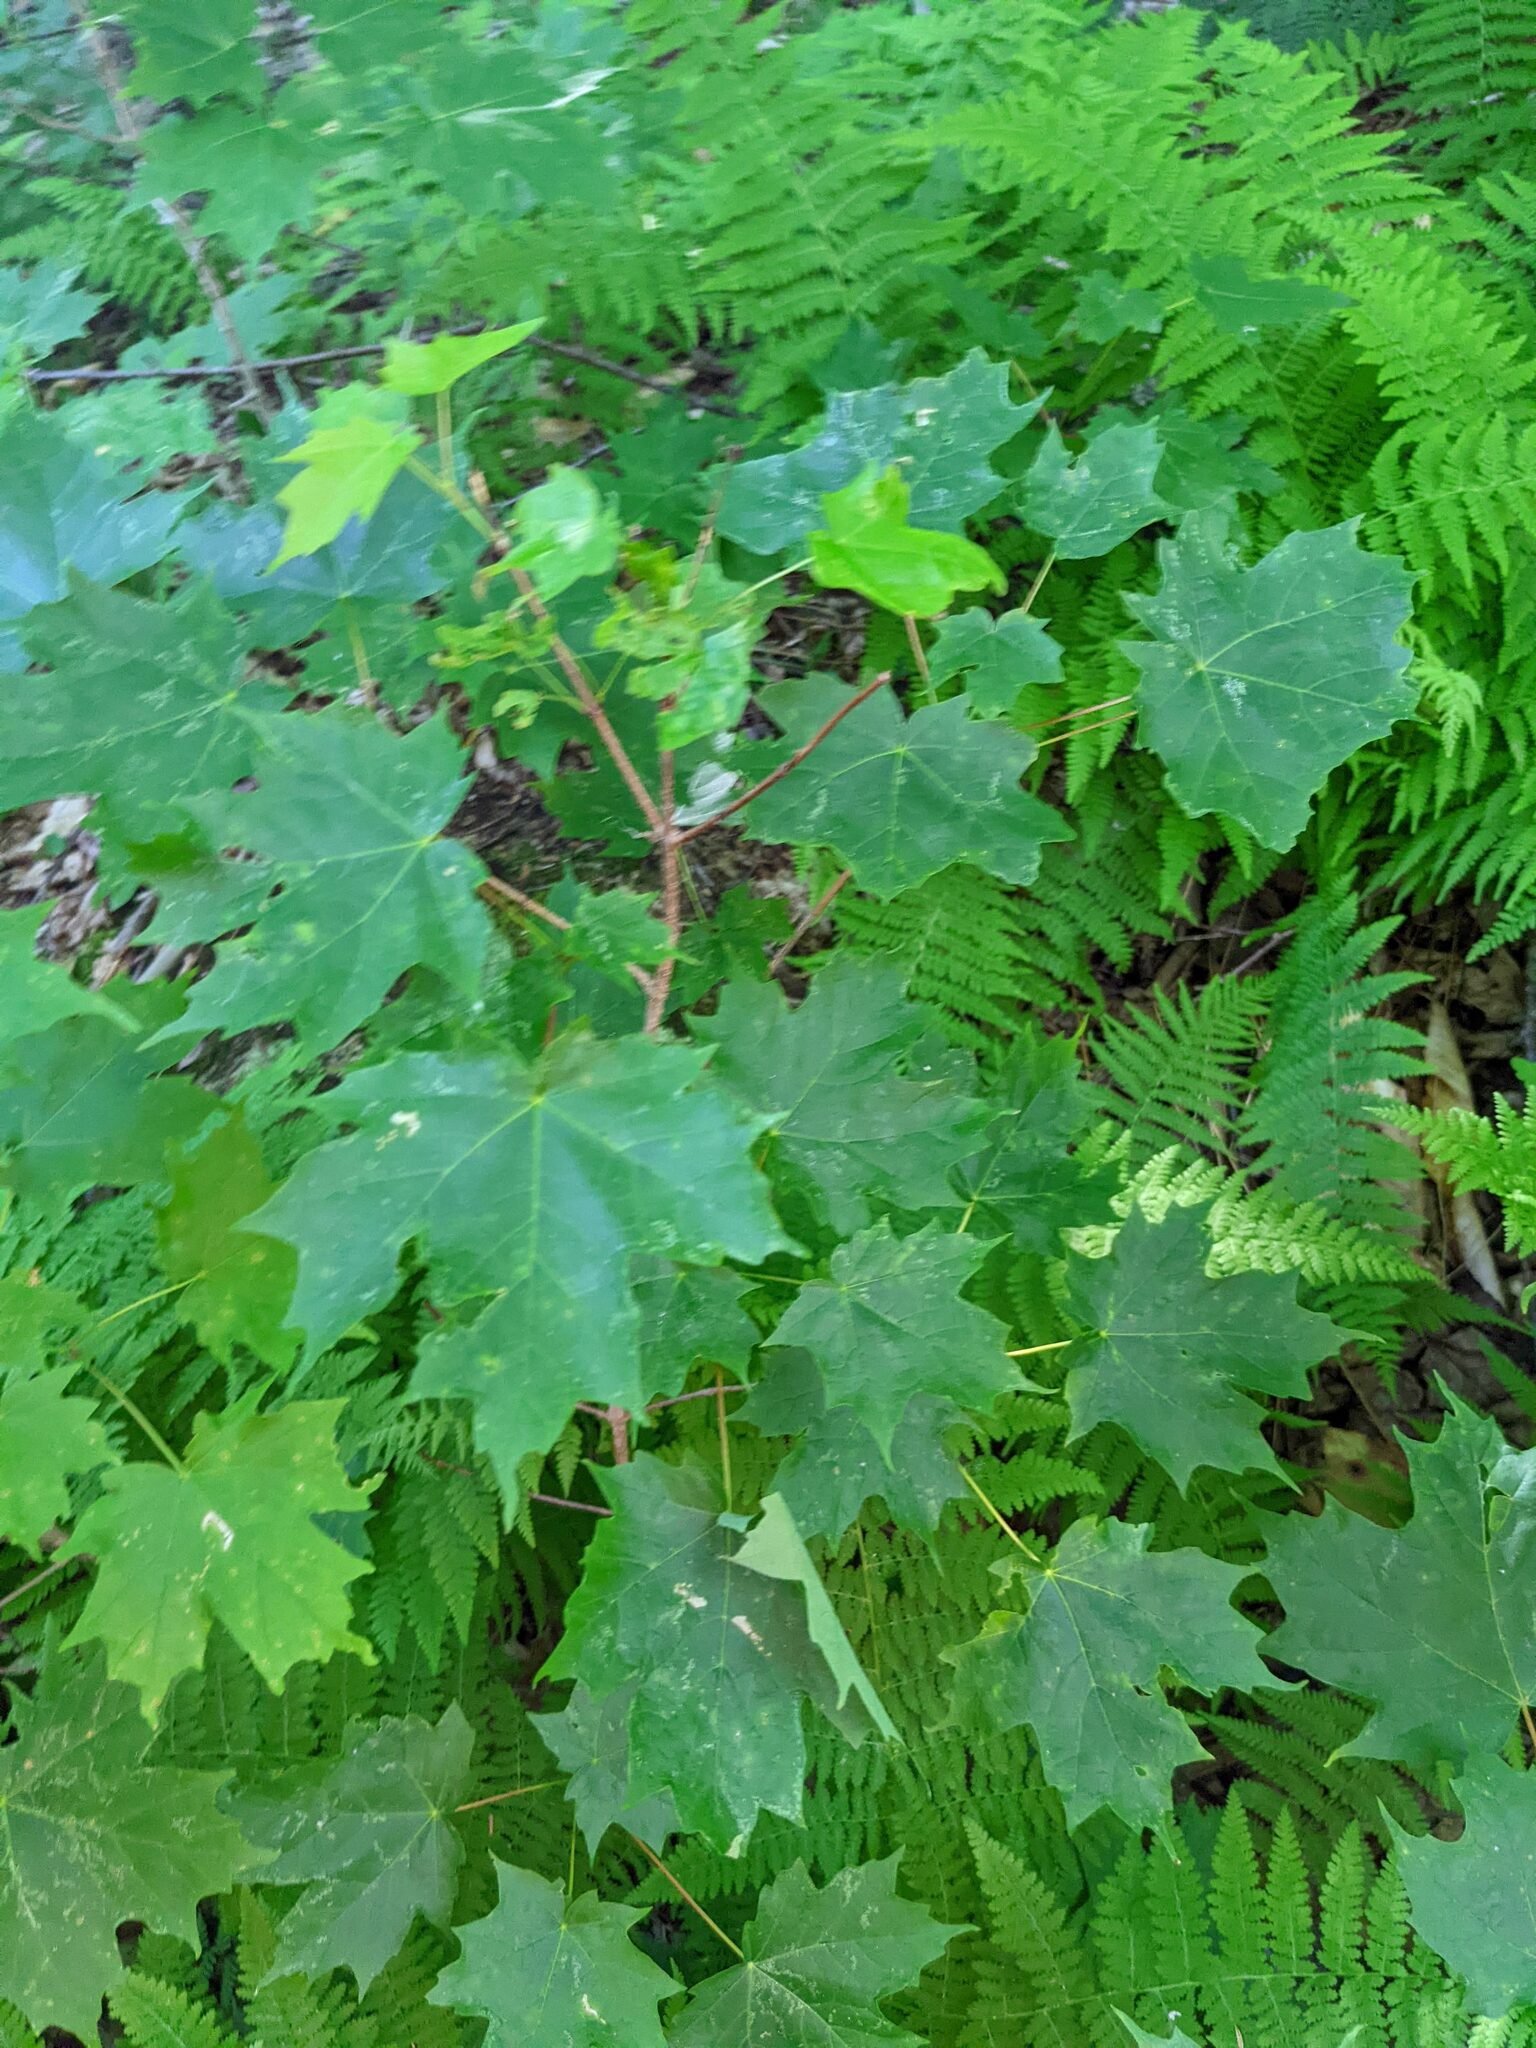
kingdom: Plantae
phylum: Tracheophyta
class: Magnoliopsida
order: Sapindales
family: Sapindaceae
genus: Acer
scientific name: Acer saccharum
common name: Sugar maple
